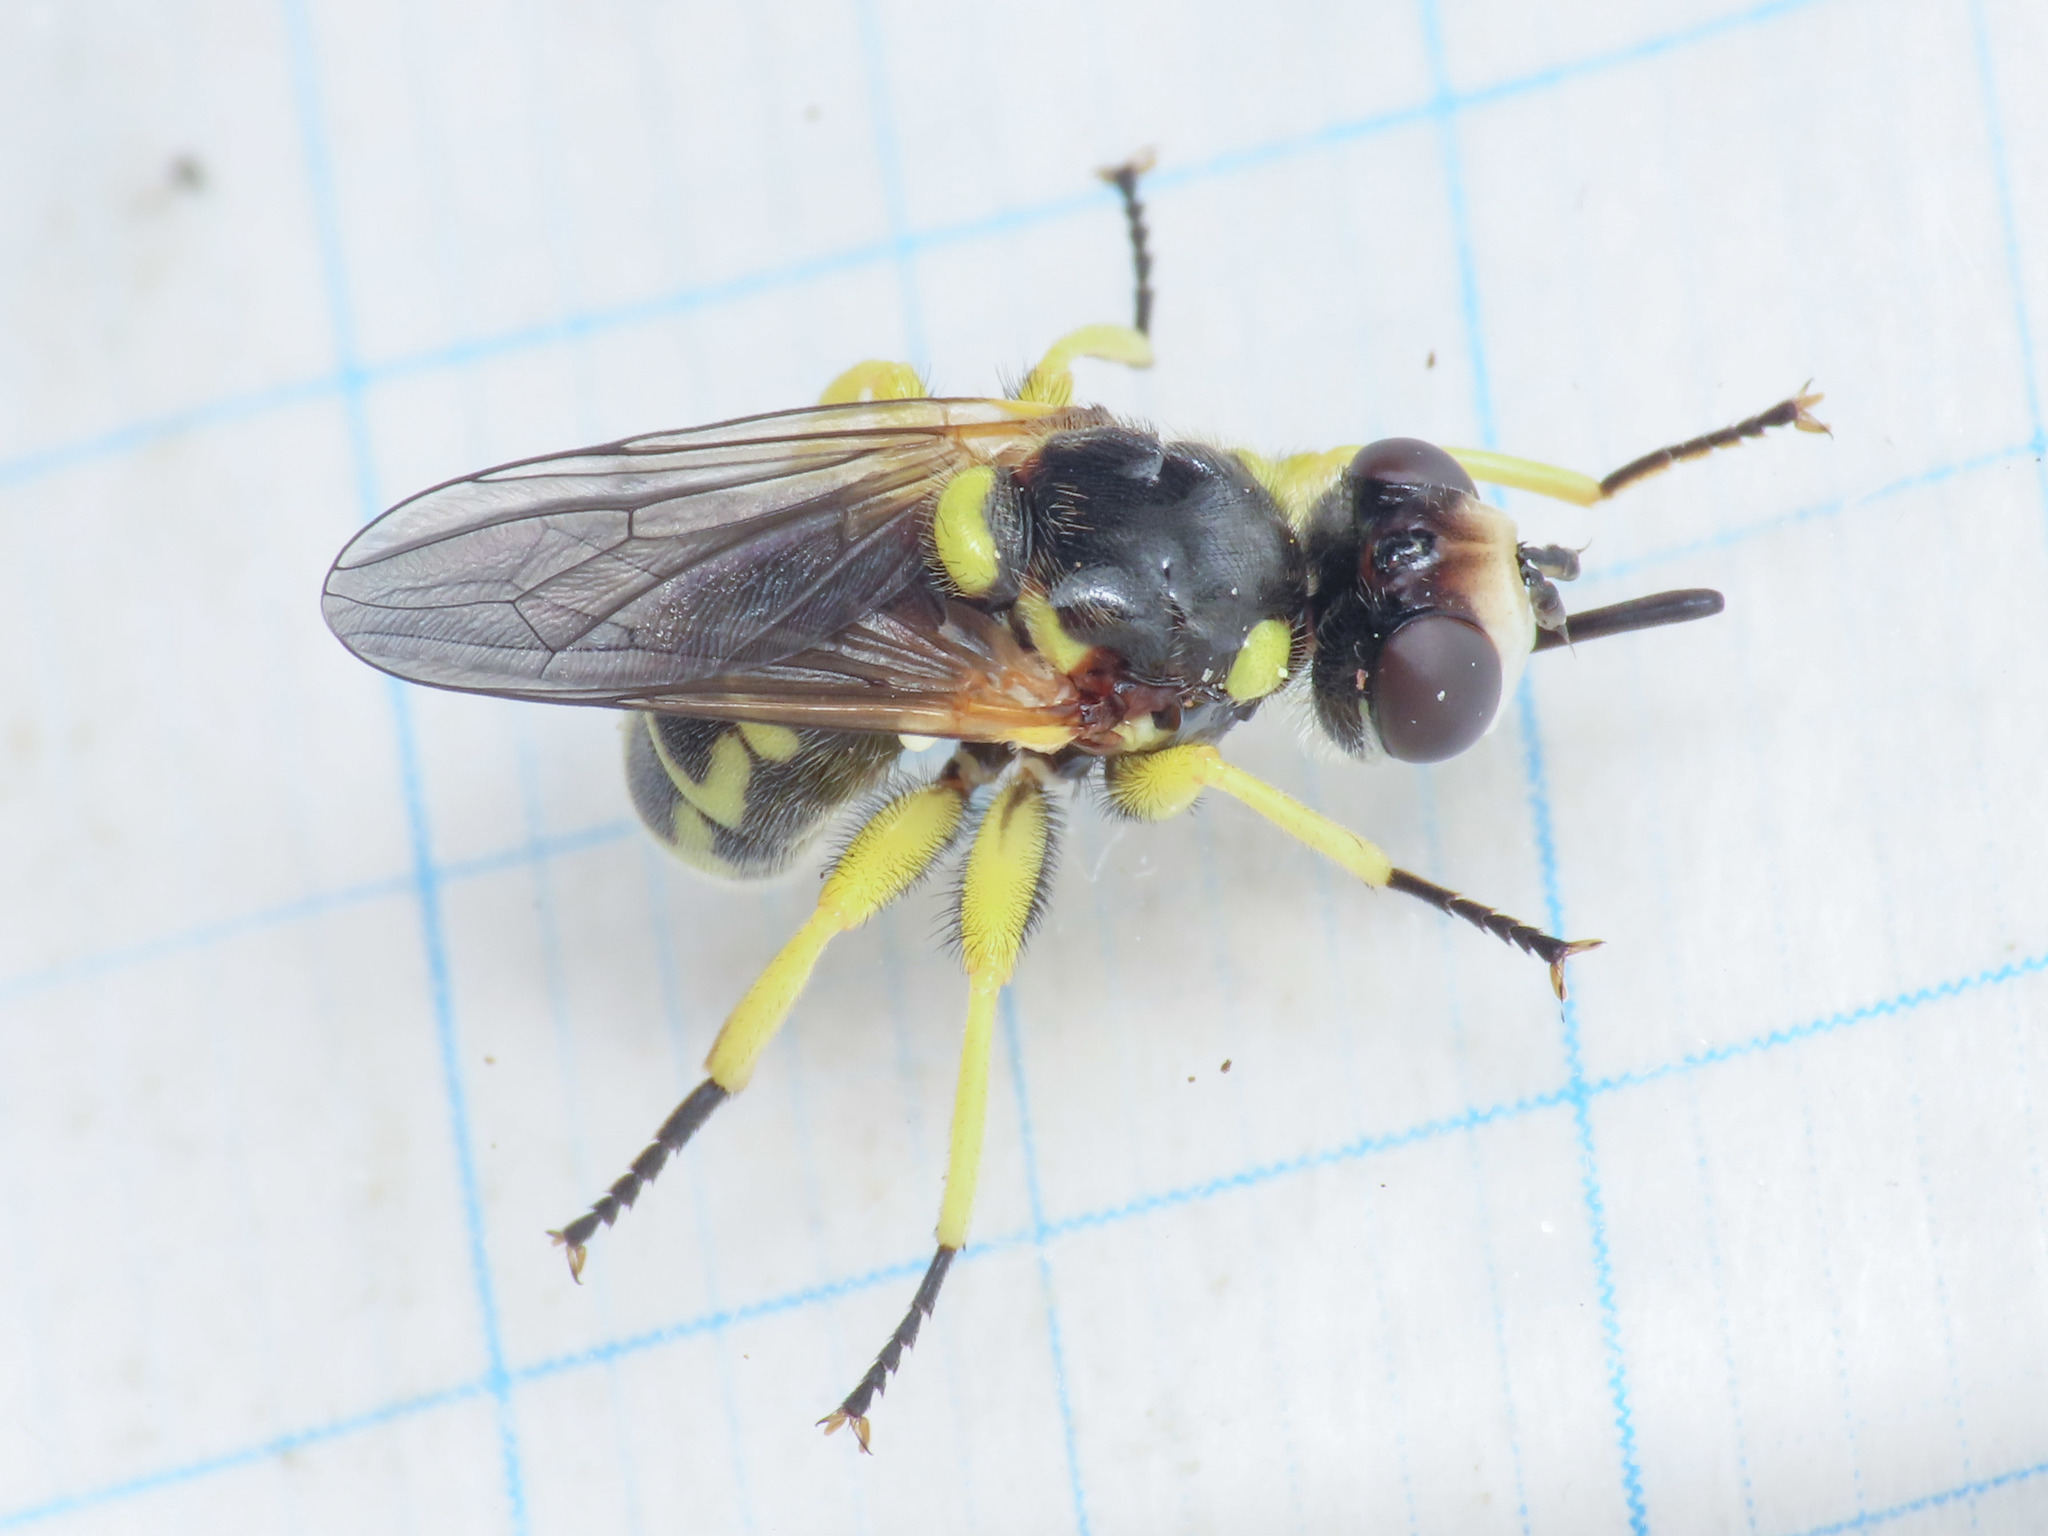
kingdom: Animalia
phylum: Arthropoda
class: Insecta
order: Diptera
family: Conopidae
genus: Dalmannia
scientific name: Dalmannia aculeata
